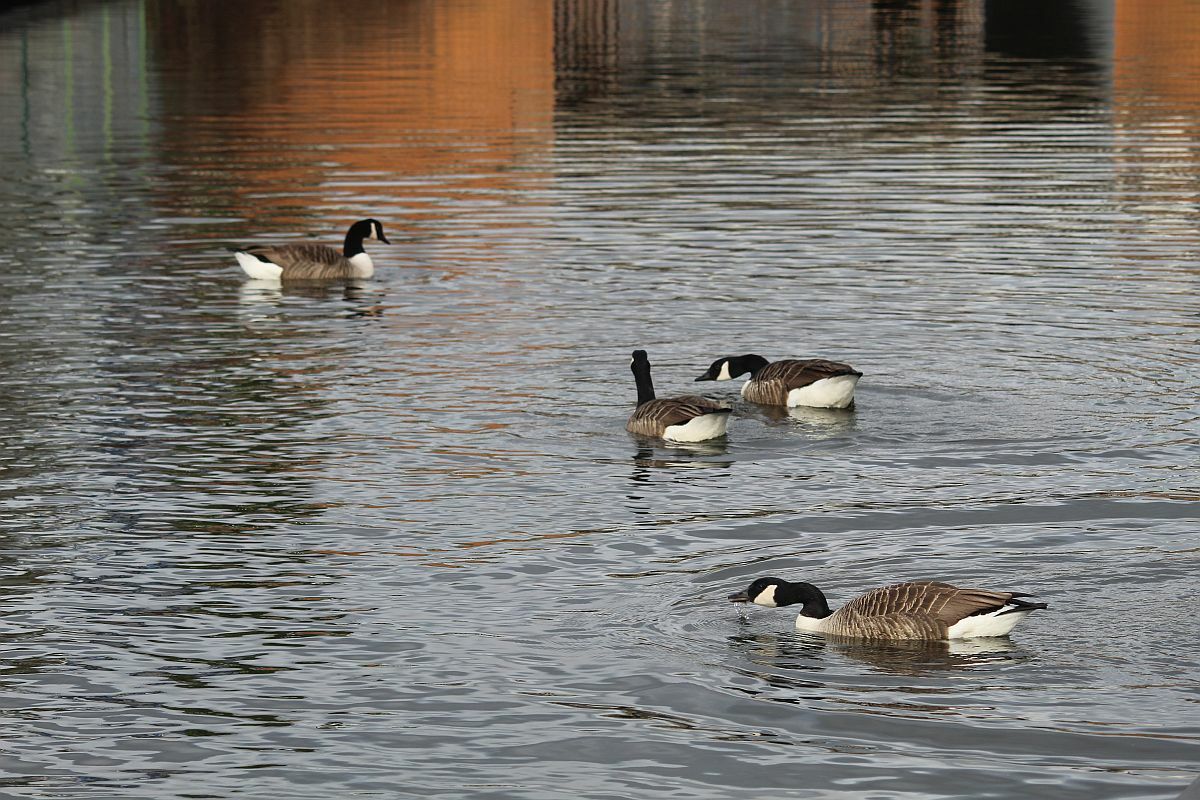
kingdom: Animalia
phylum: Chordata
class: Aves
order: Anseriformes
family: Anatidae
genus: Branta
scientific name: Branta canadensis
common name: Canada goose
